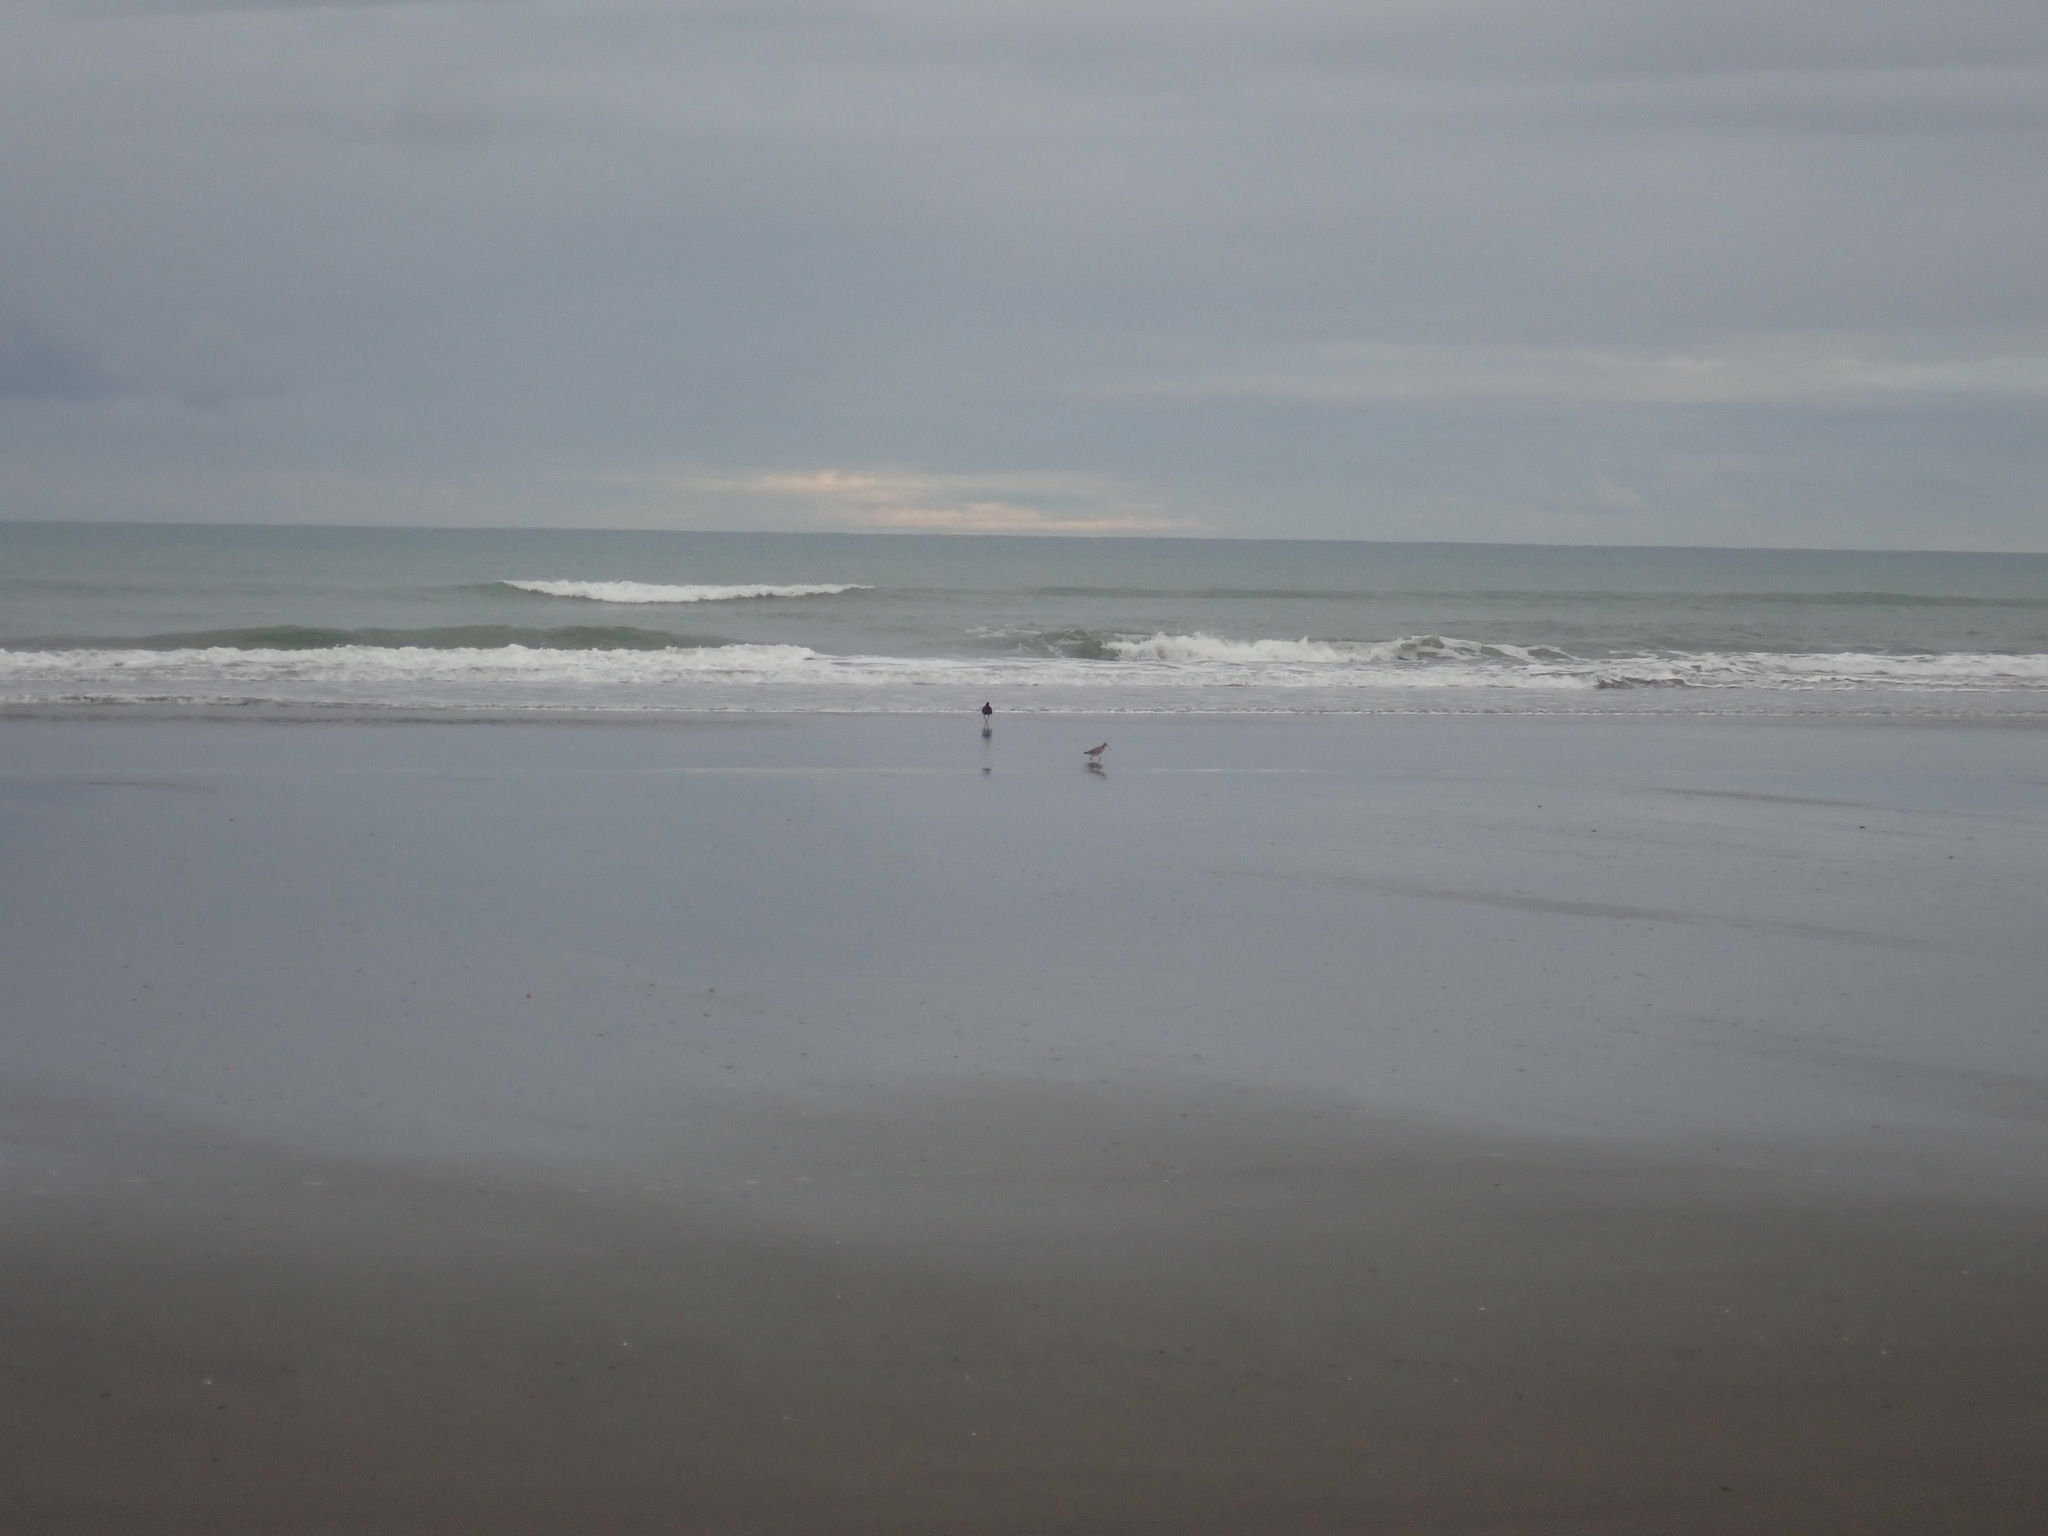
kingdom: Animalia
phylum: Chordata
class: Aves
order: Charadriiformes
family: Scolopacidae
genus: Limosa
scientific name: Limosa lapponica
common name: Bar-tailed godwit
